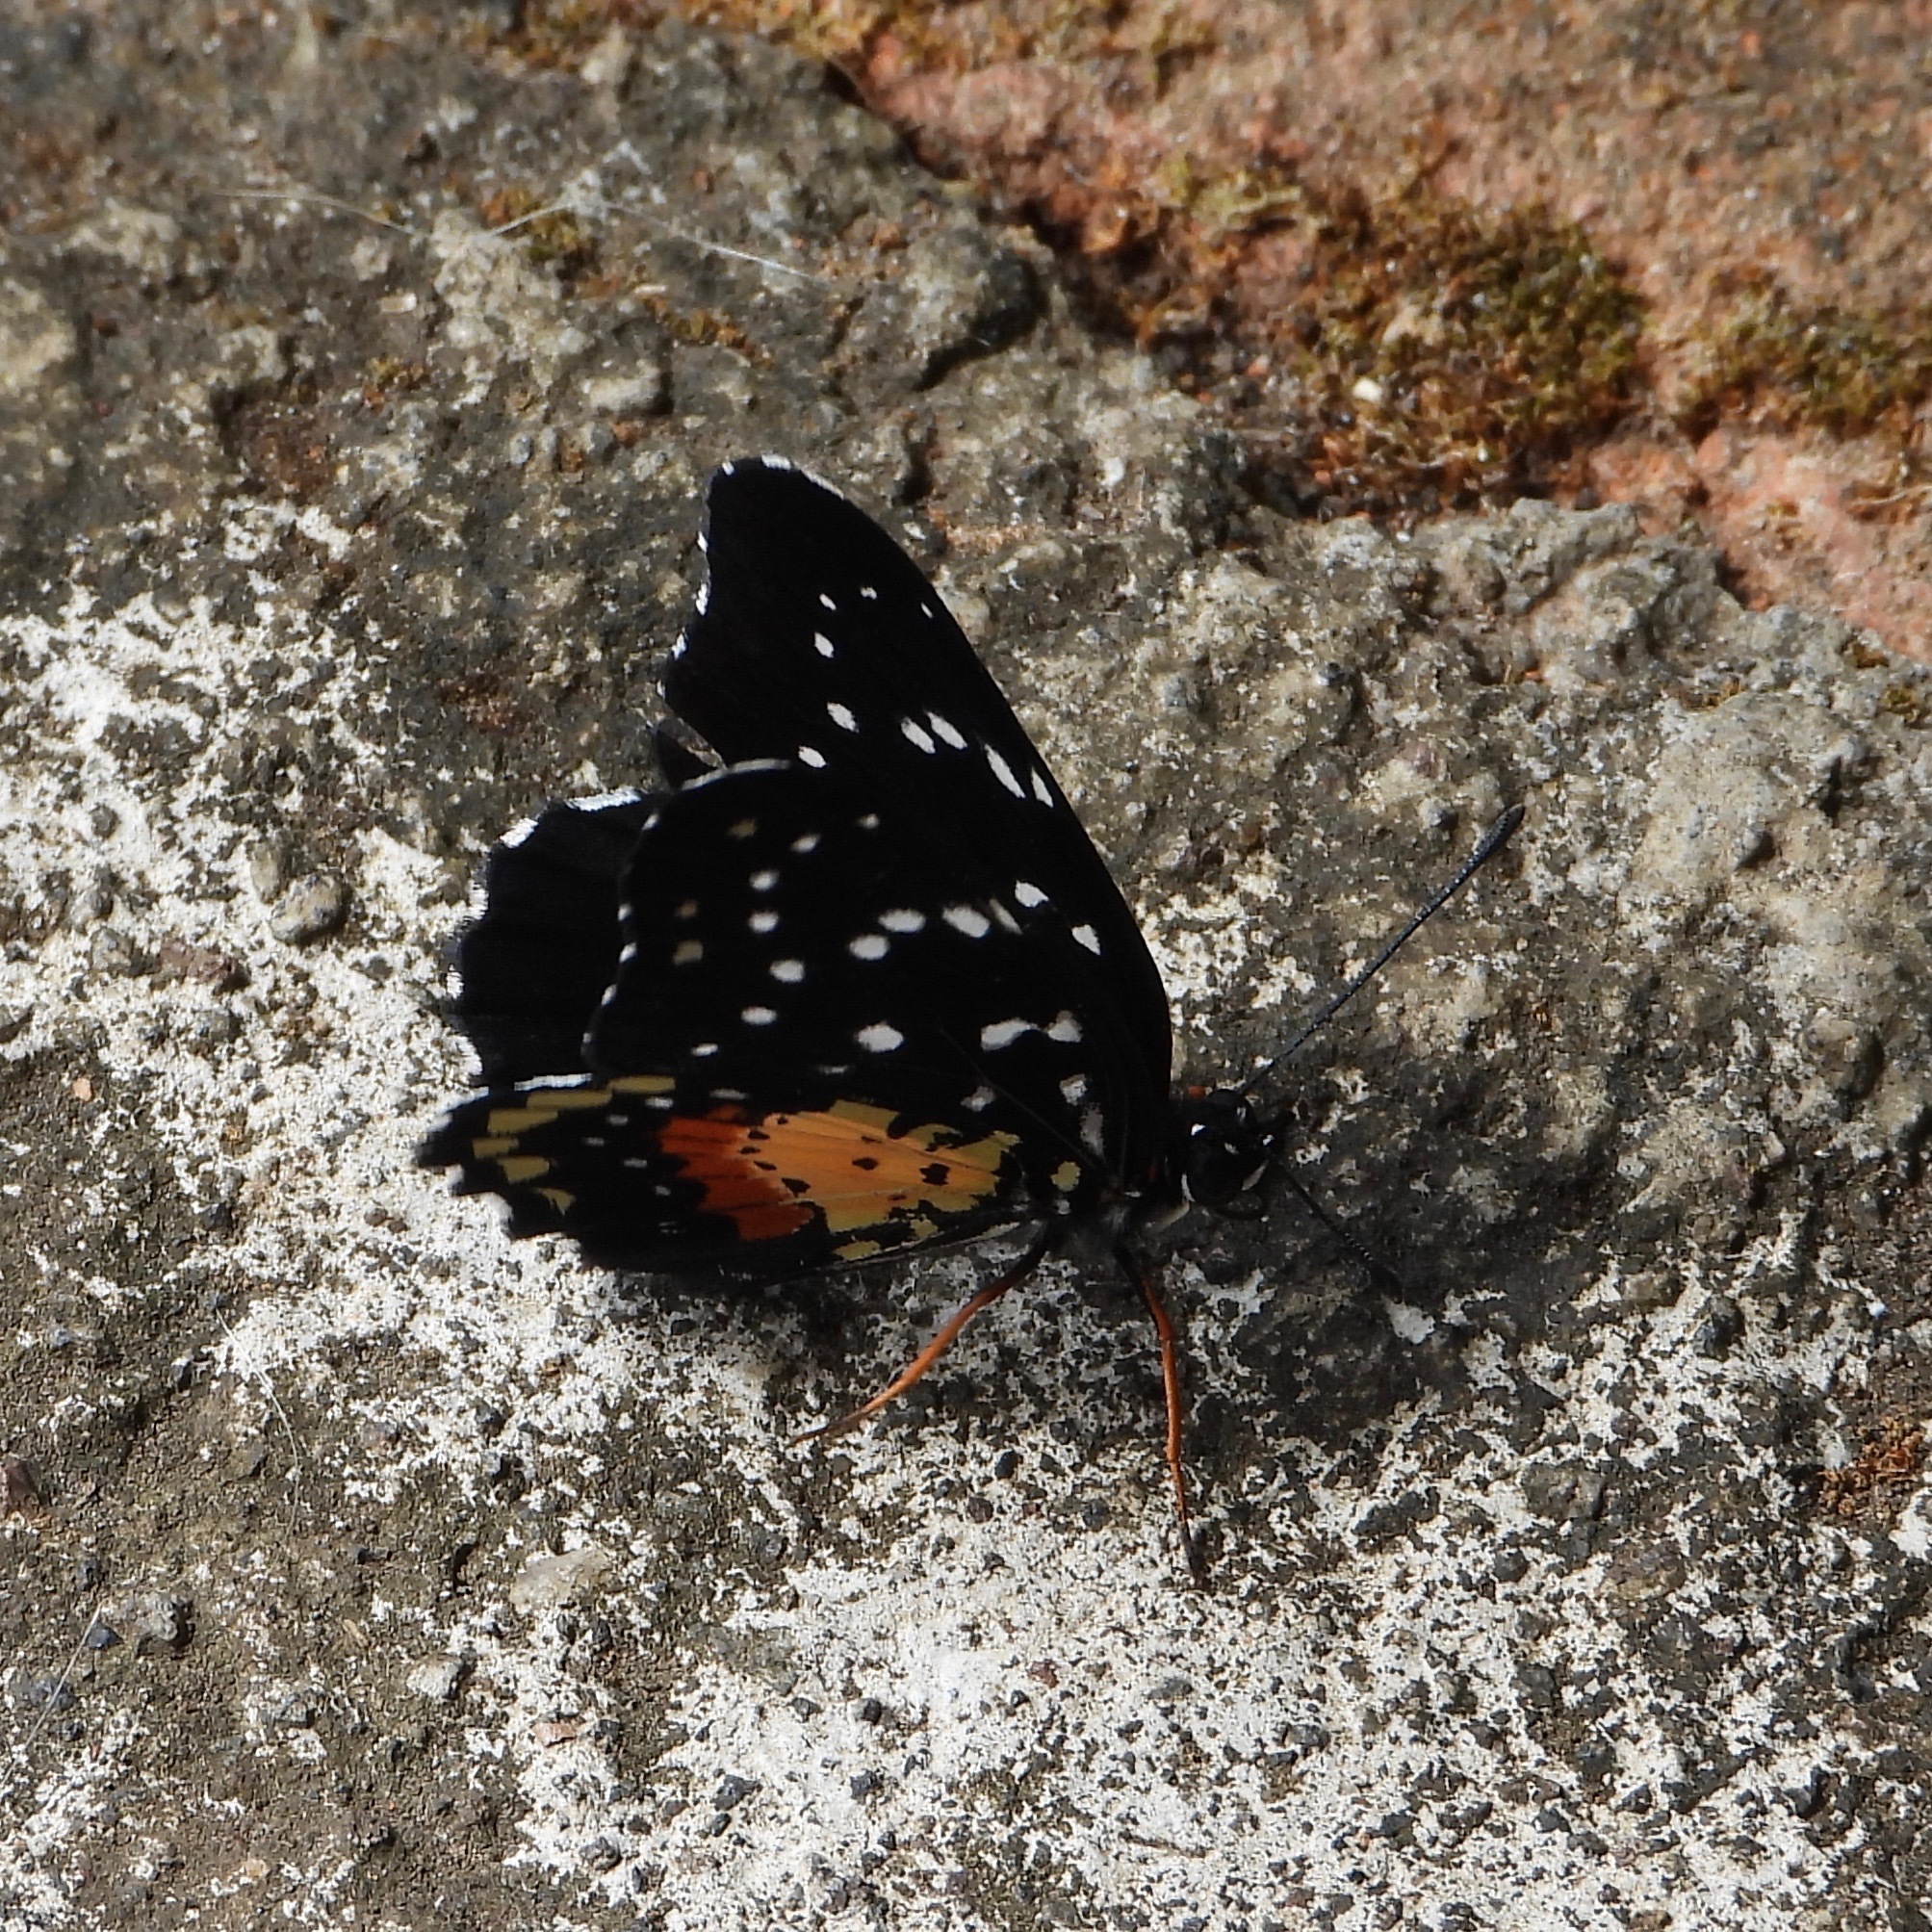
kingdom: Animalia
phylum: Arthropoda
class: Insecta
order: Lepidoptera
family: Nymphalidae
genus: Chlosyne
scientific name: Chlosyne janais
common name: Crimson patch
